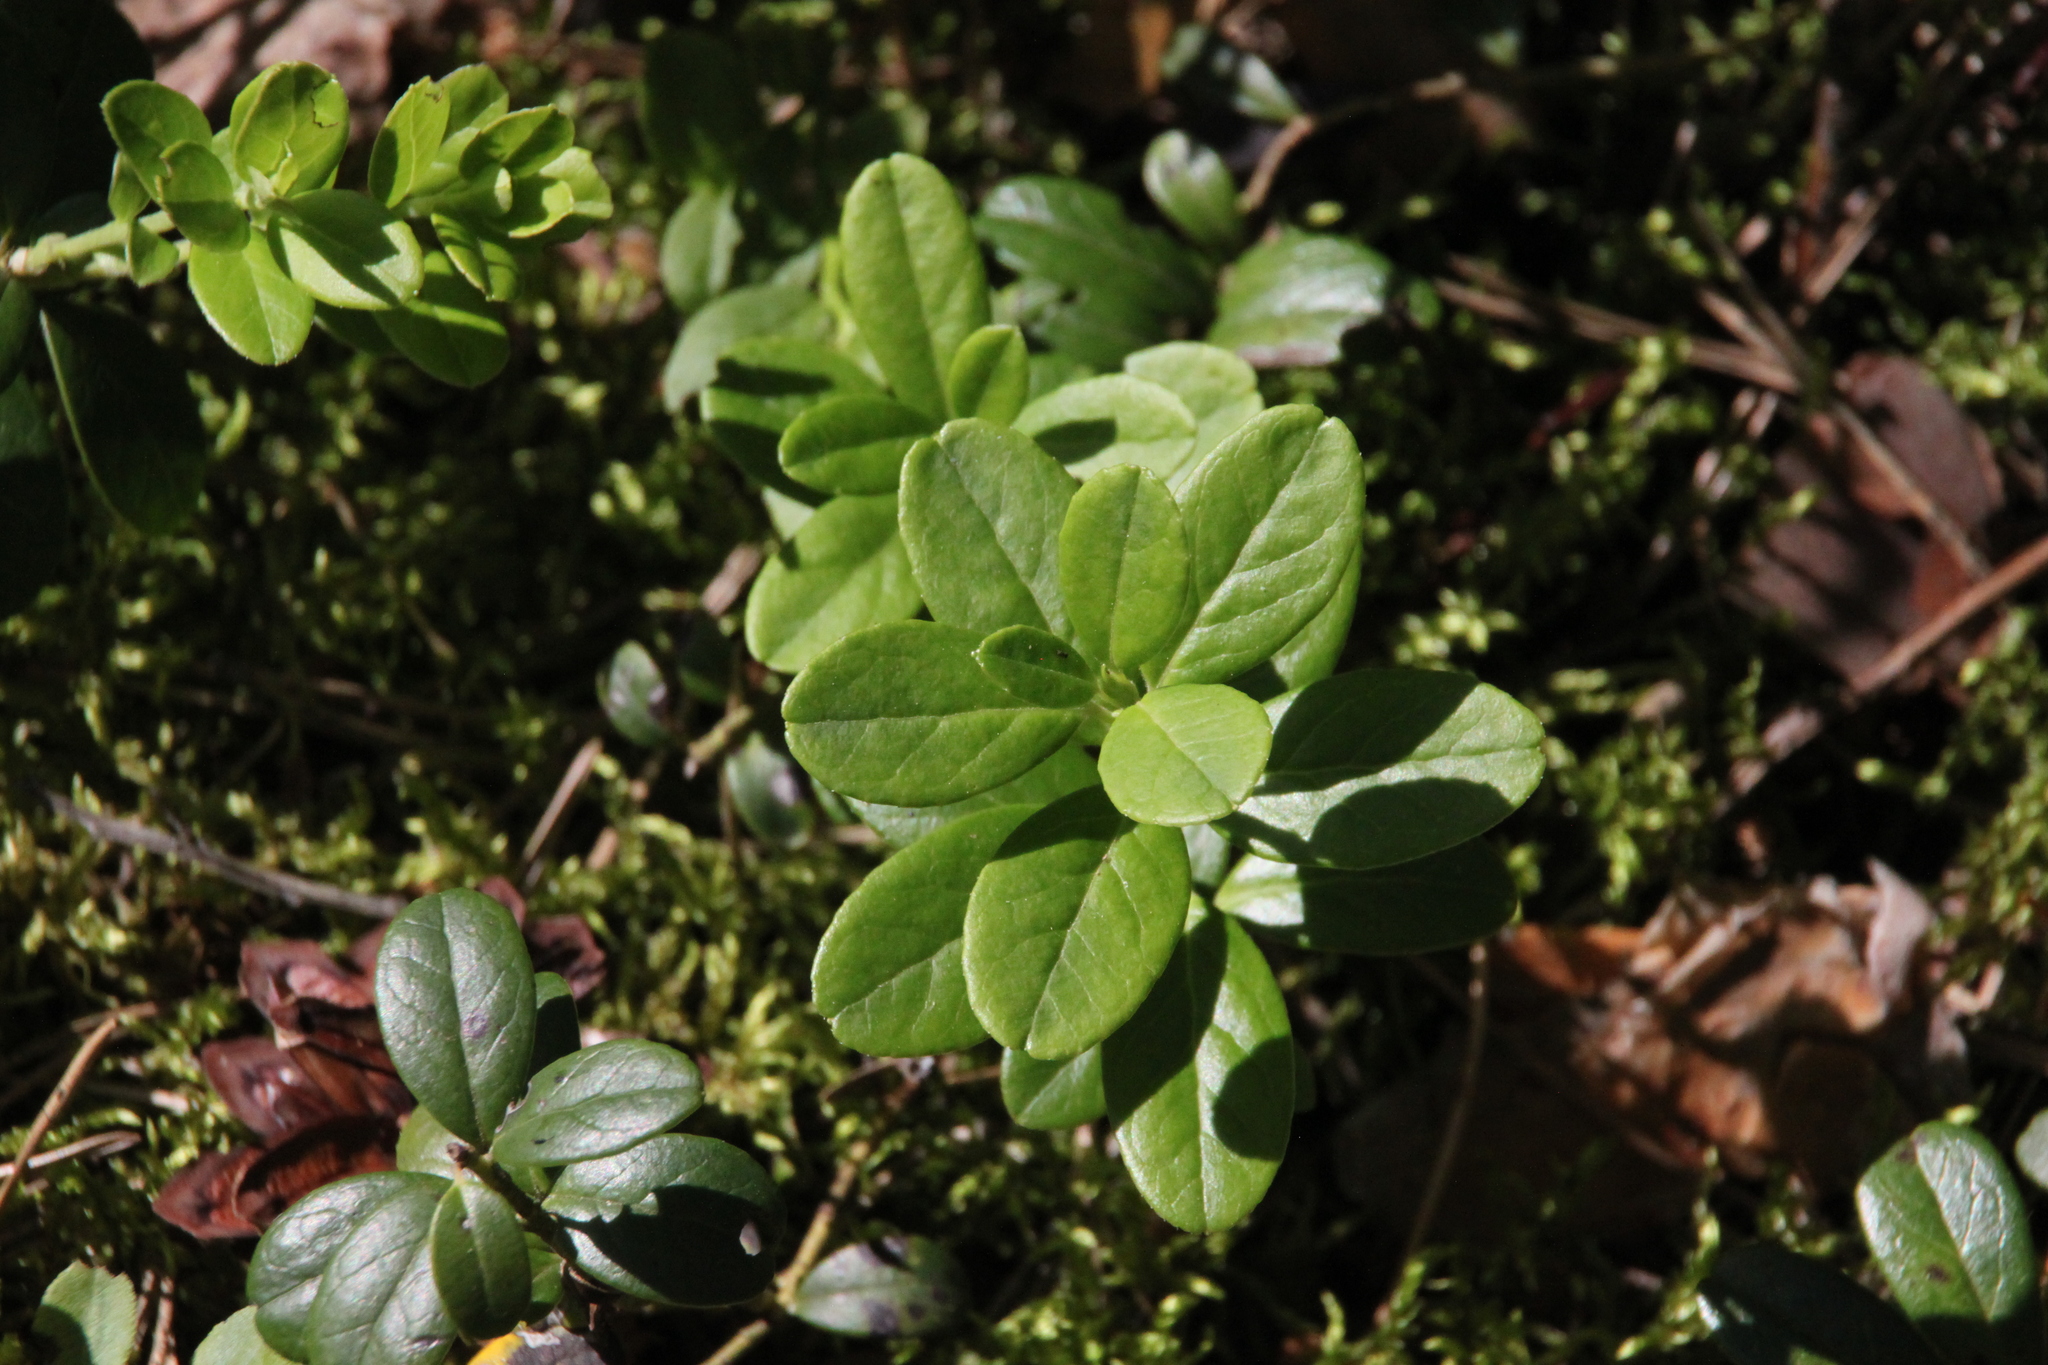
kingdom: Plantae
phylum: Tracheophyta
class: Magnoliopsida
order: Ericales
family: Ericaceae
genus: Vaccinium
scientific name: Vaccinium vitis-idaea
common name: Cowberry
